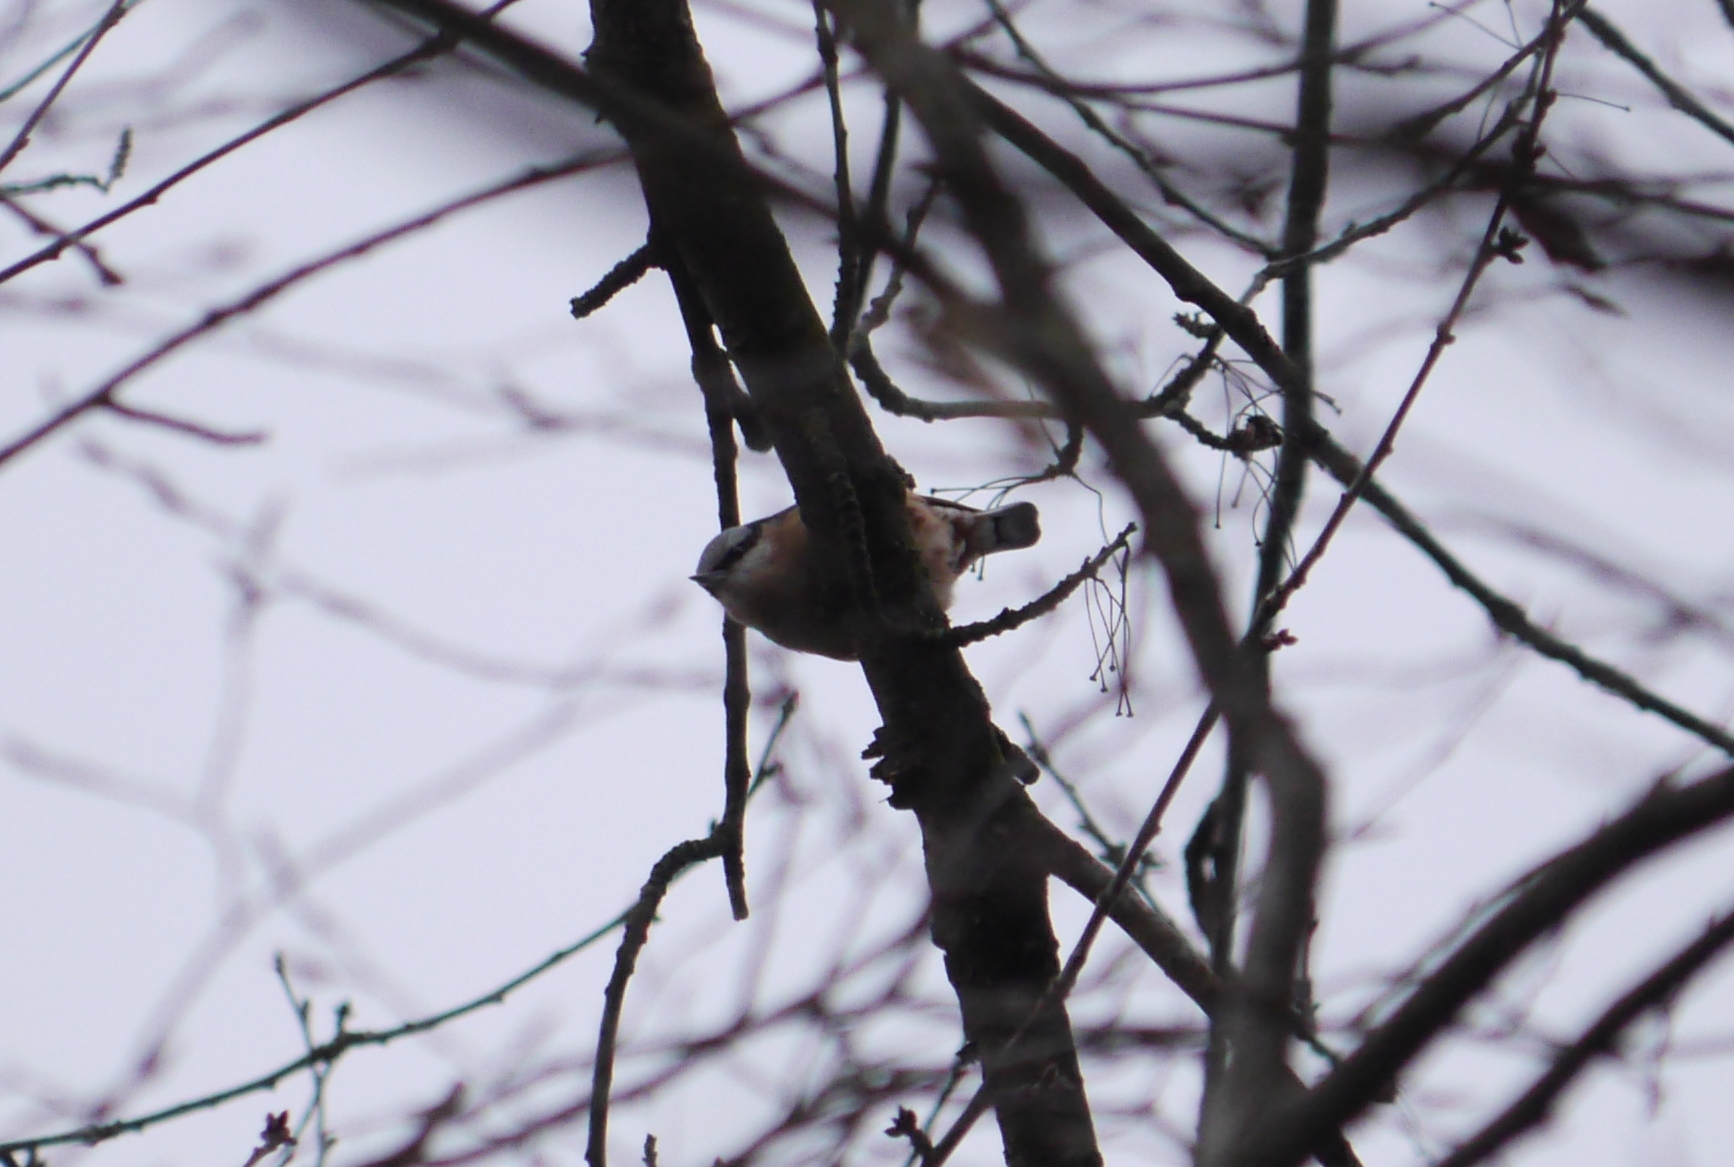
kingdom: Animalia
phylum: Chordata
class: Aves
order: Passeriformes
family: Sittidae
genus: Sitta
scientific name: Sitta europaea
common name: Eurasian nuthatch
